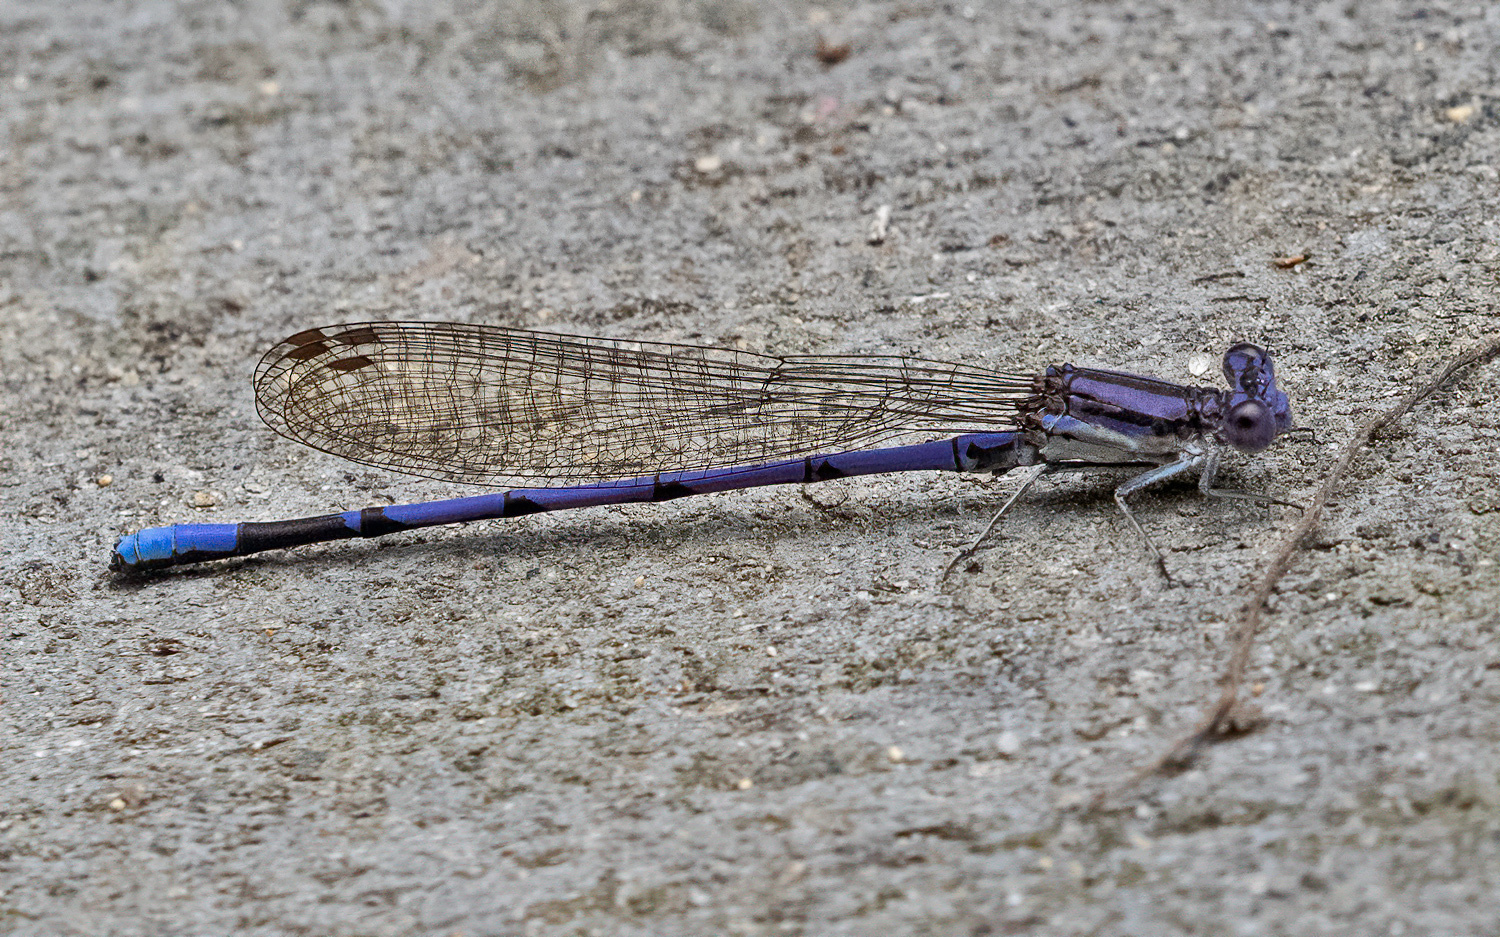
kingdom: Animalia
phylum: Arthropoda
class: Insecta
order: Odonata
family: Coenagrionidae
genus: Argia
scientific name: Argia fumipennis
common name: Variable dancer
